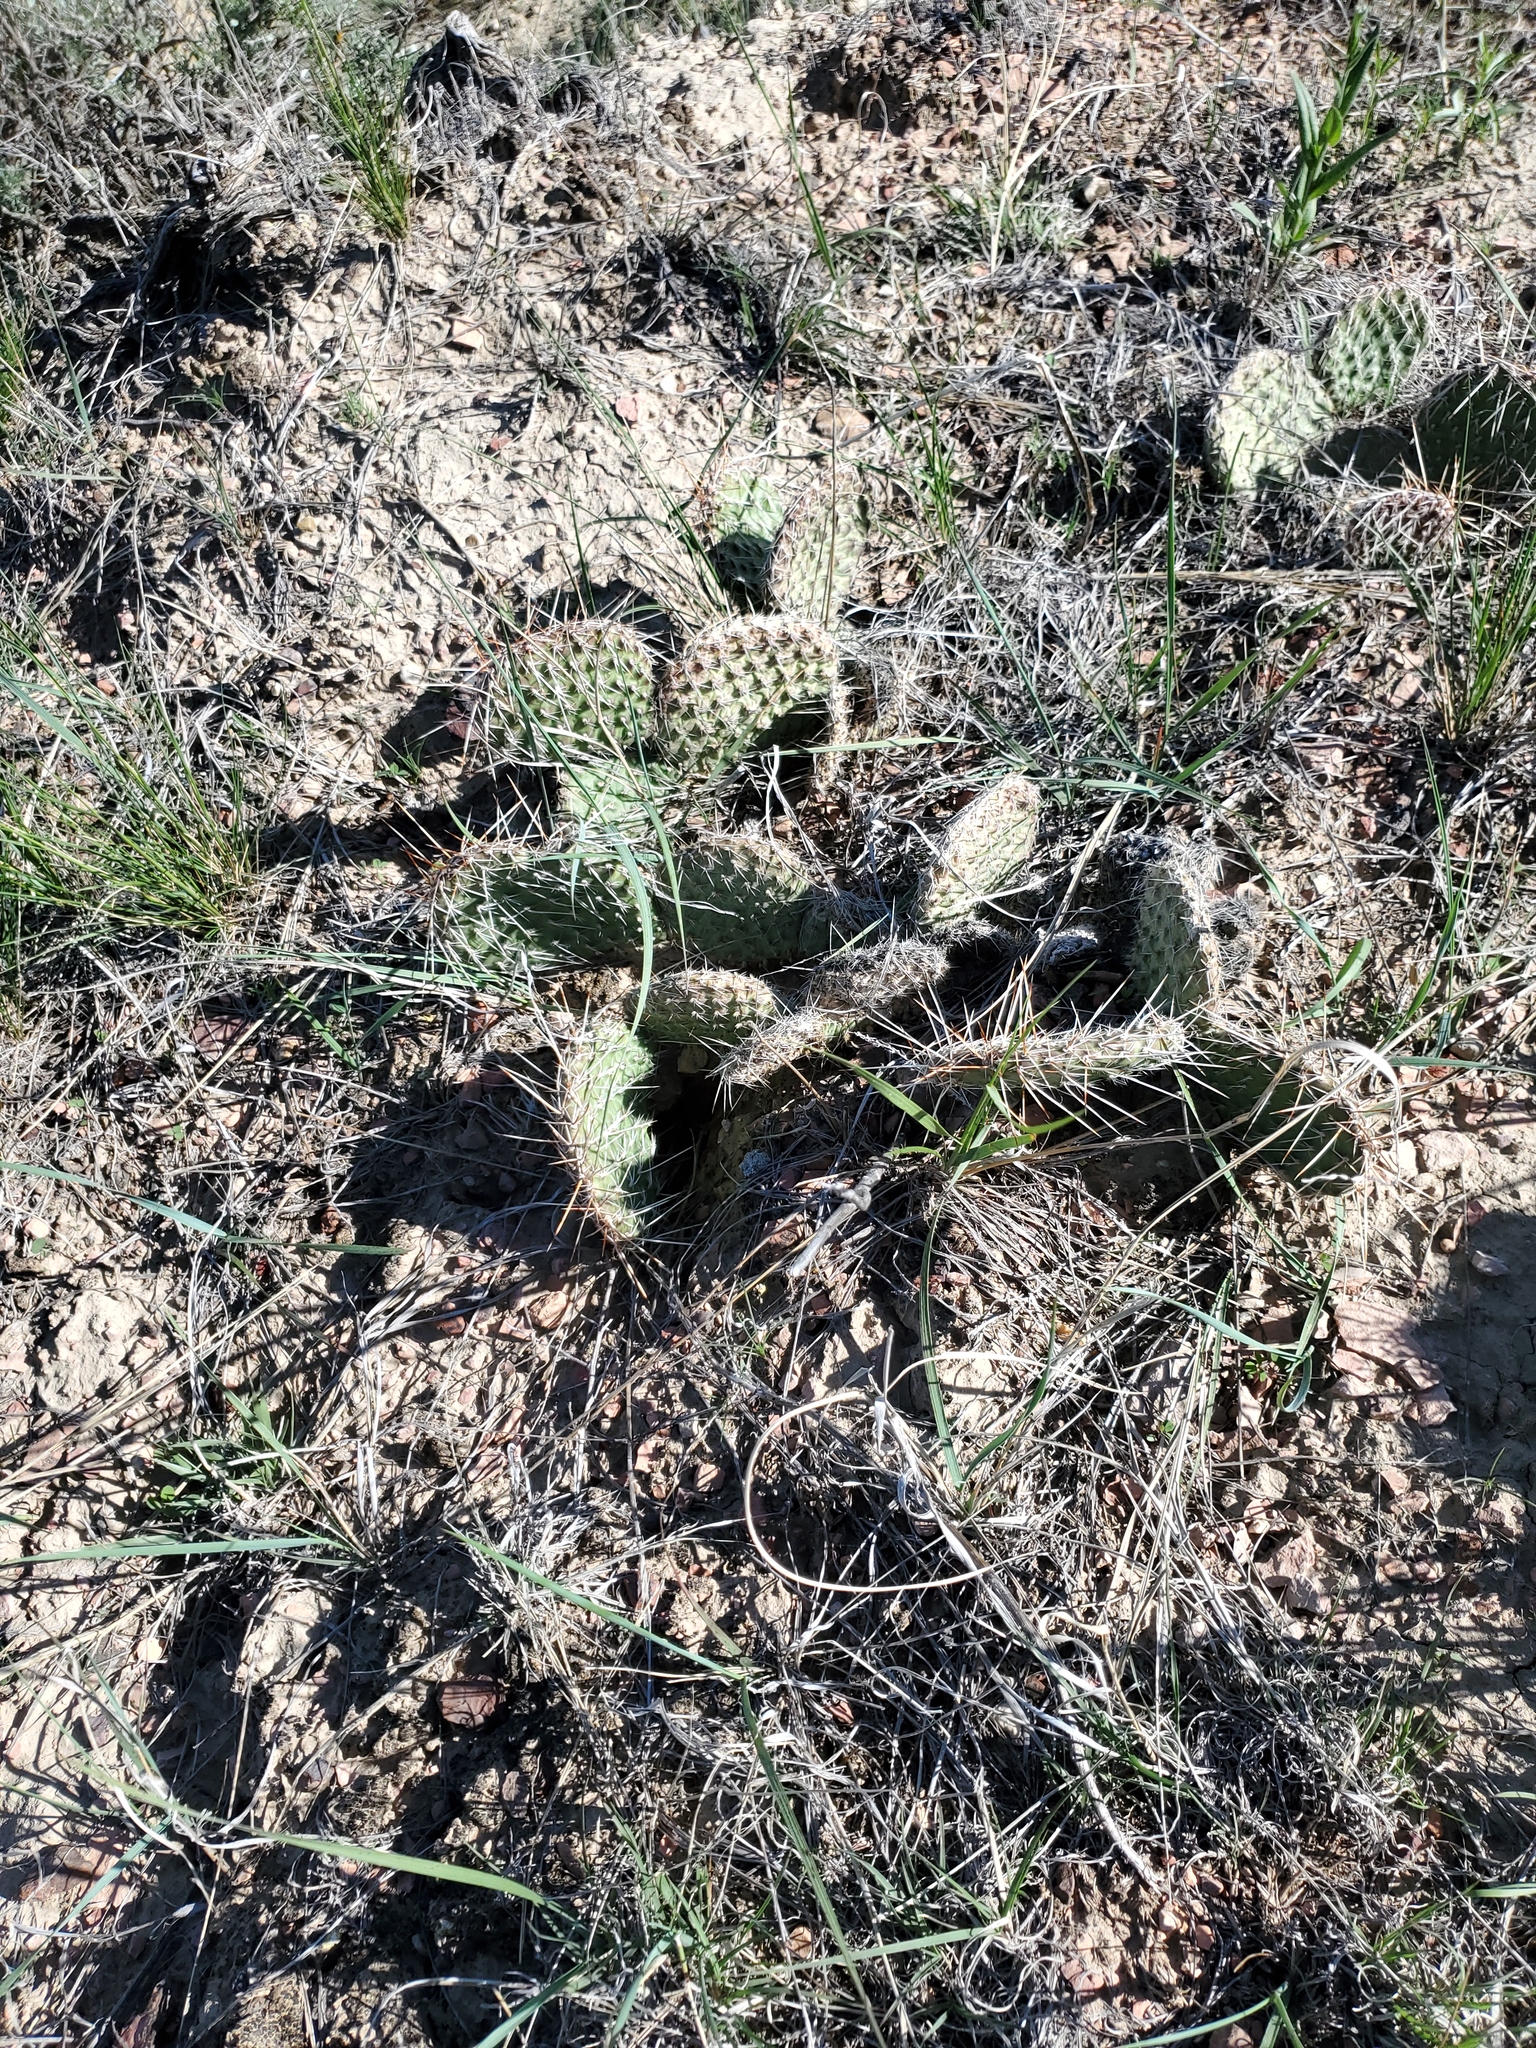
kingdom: Plantae
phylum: Tracheophyta
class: Magnoliopsida
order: Caryophyllales
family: Cactaceae
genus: Opuntia
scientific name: Opuntia polyacantha
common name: Plains prickly-pear
